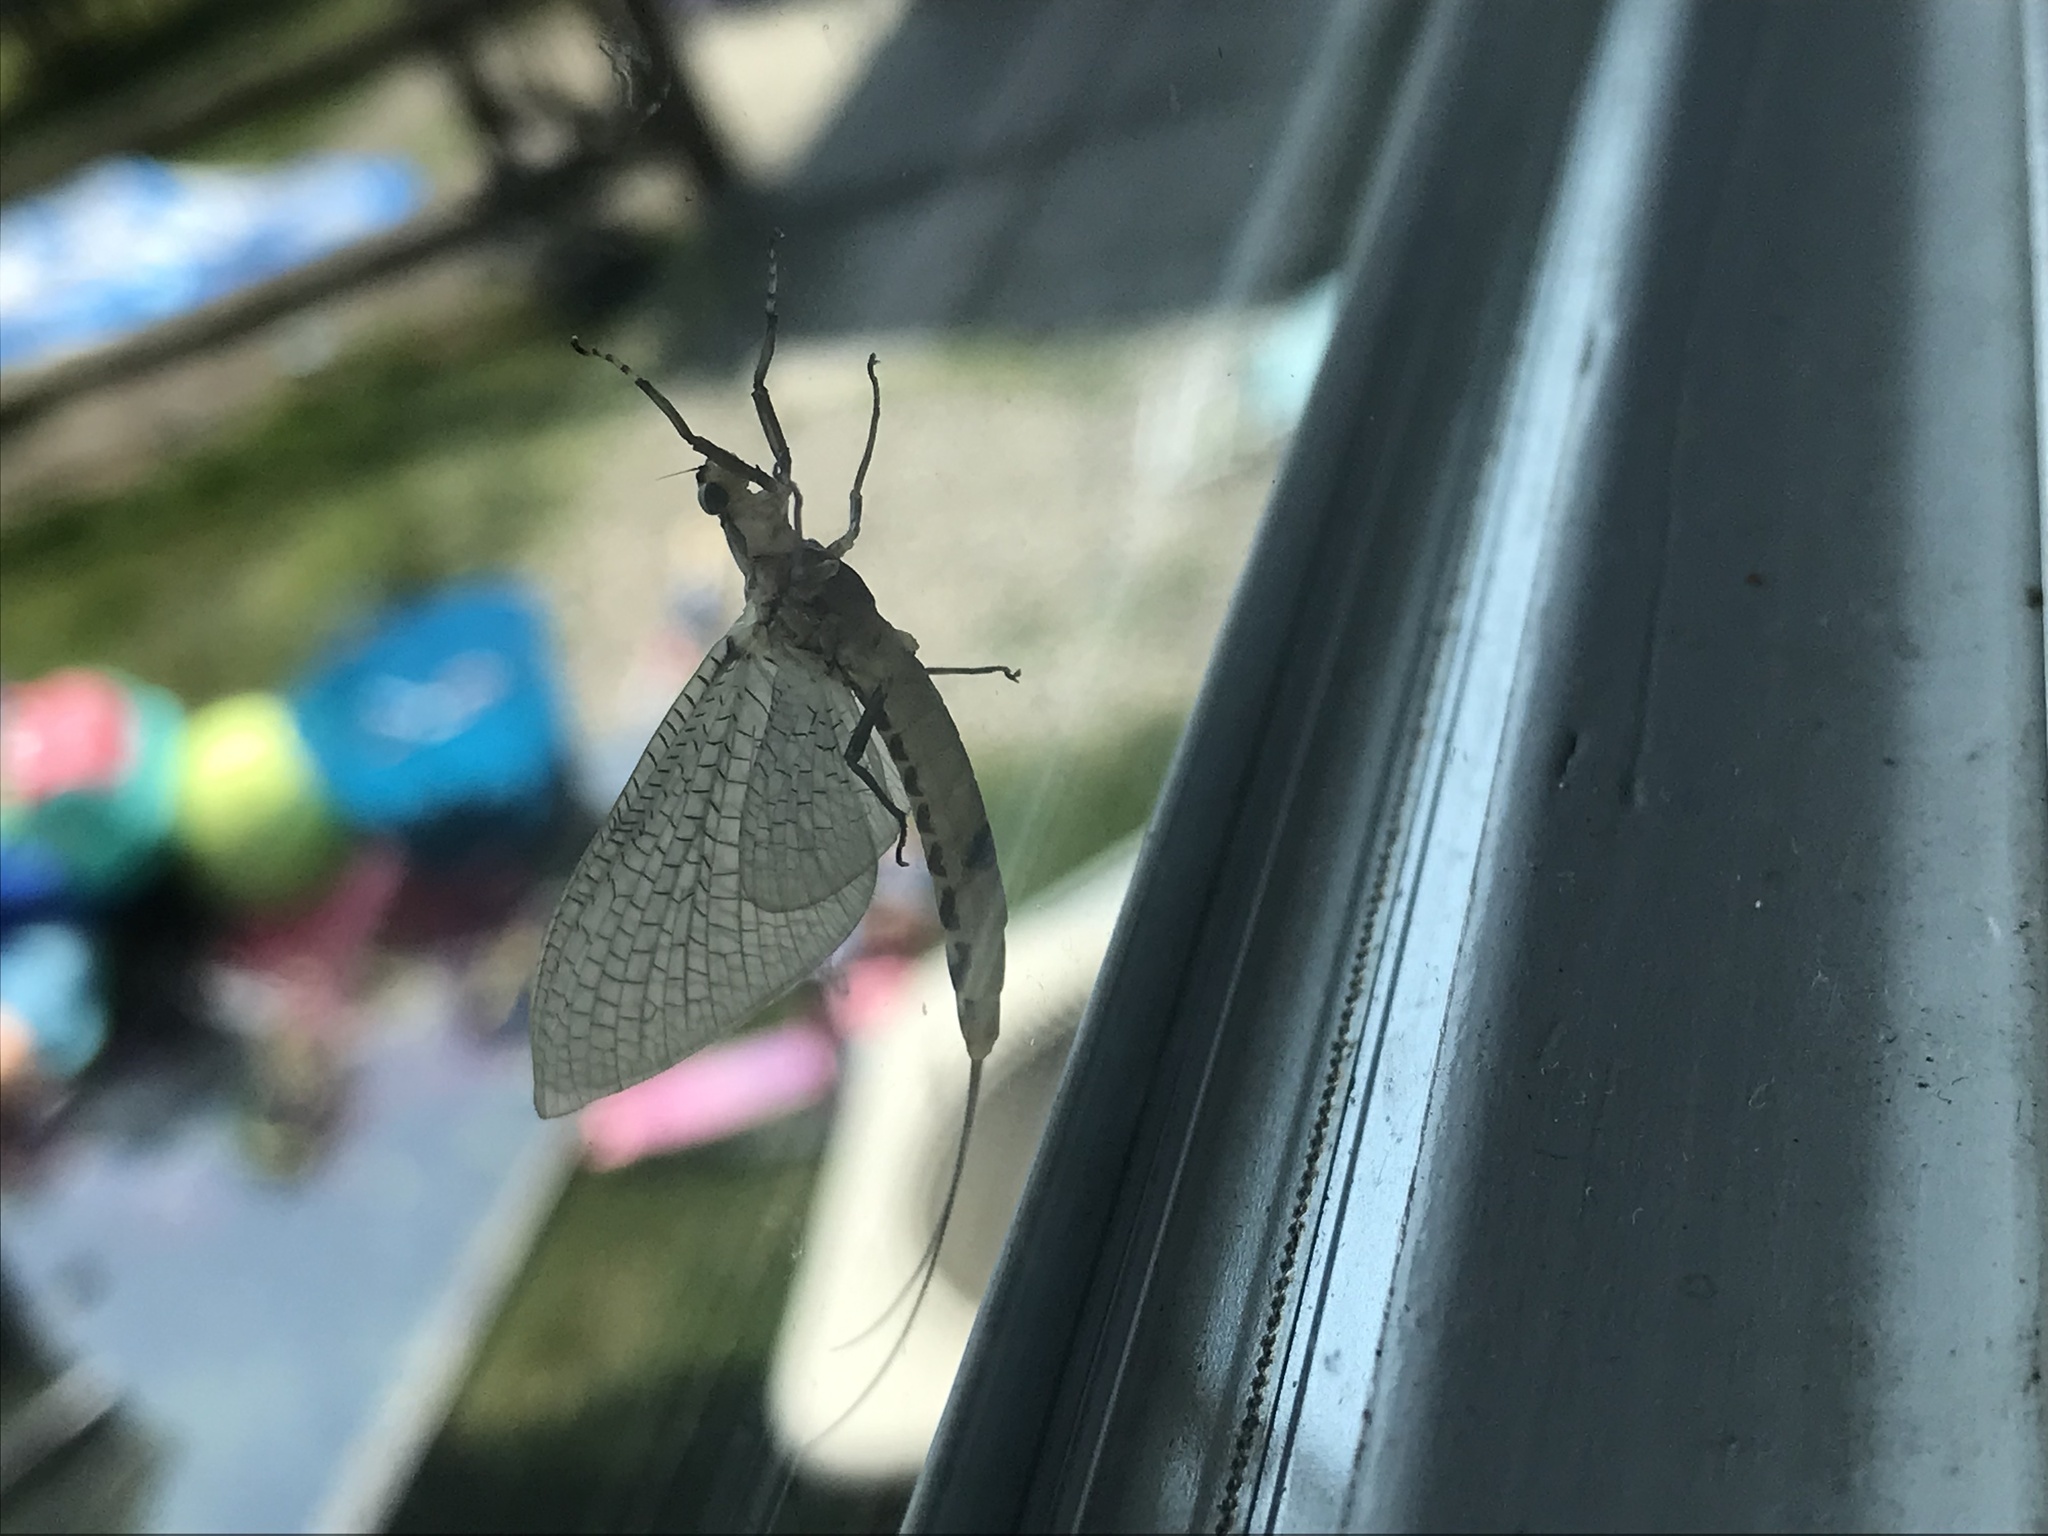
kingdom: Animalia
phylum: Arthropoda
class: Insecta
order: Ephemeroptera
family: Ephemeridae
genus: Hexagenia
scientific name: Hexagenia limbata
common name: Giant mayfly
